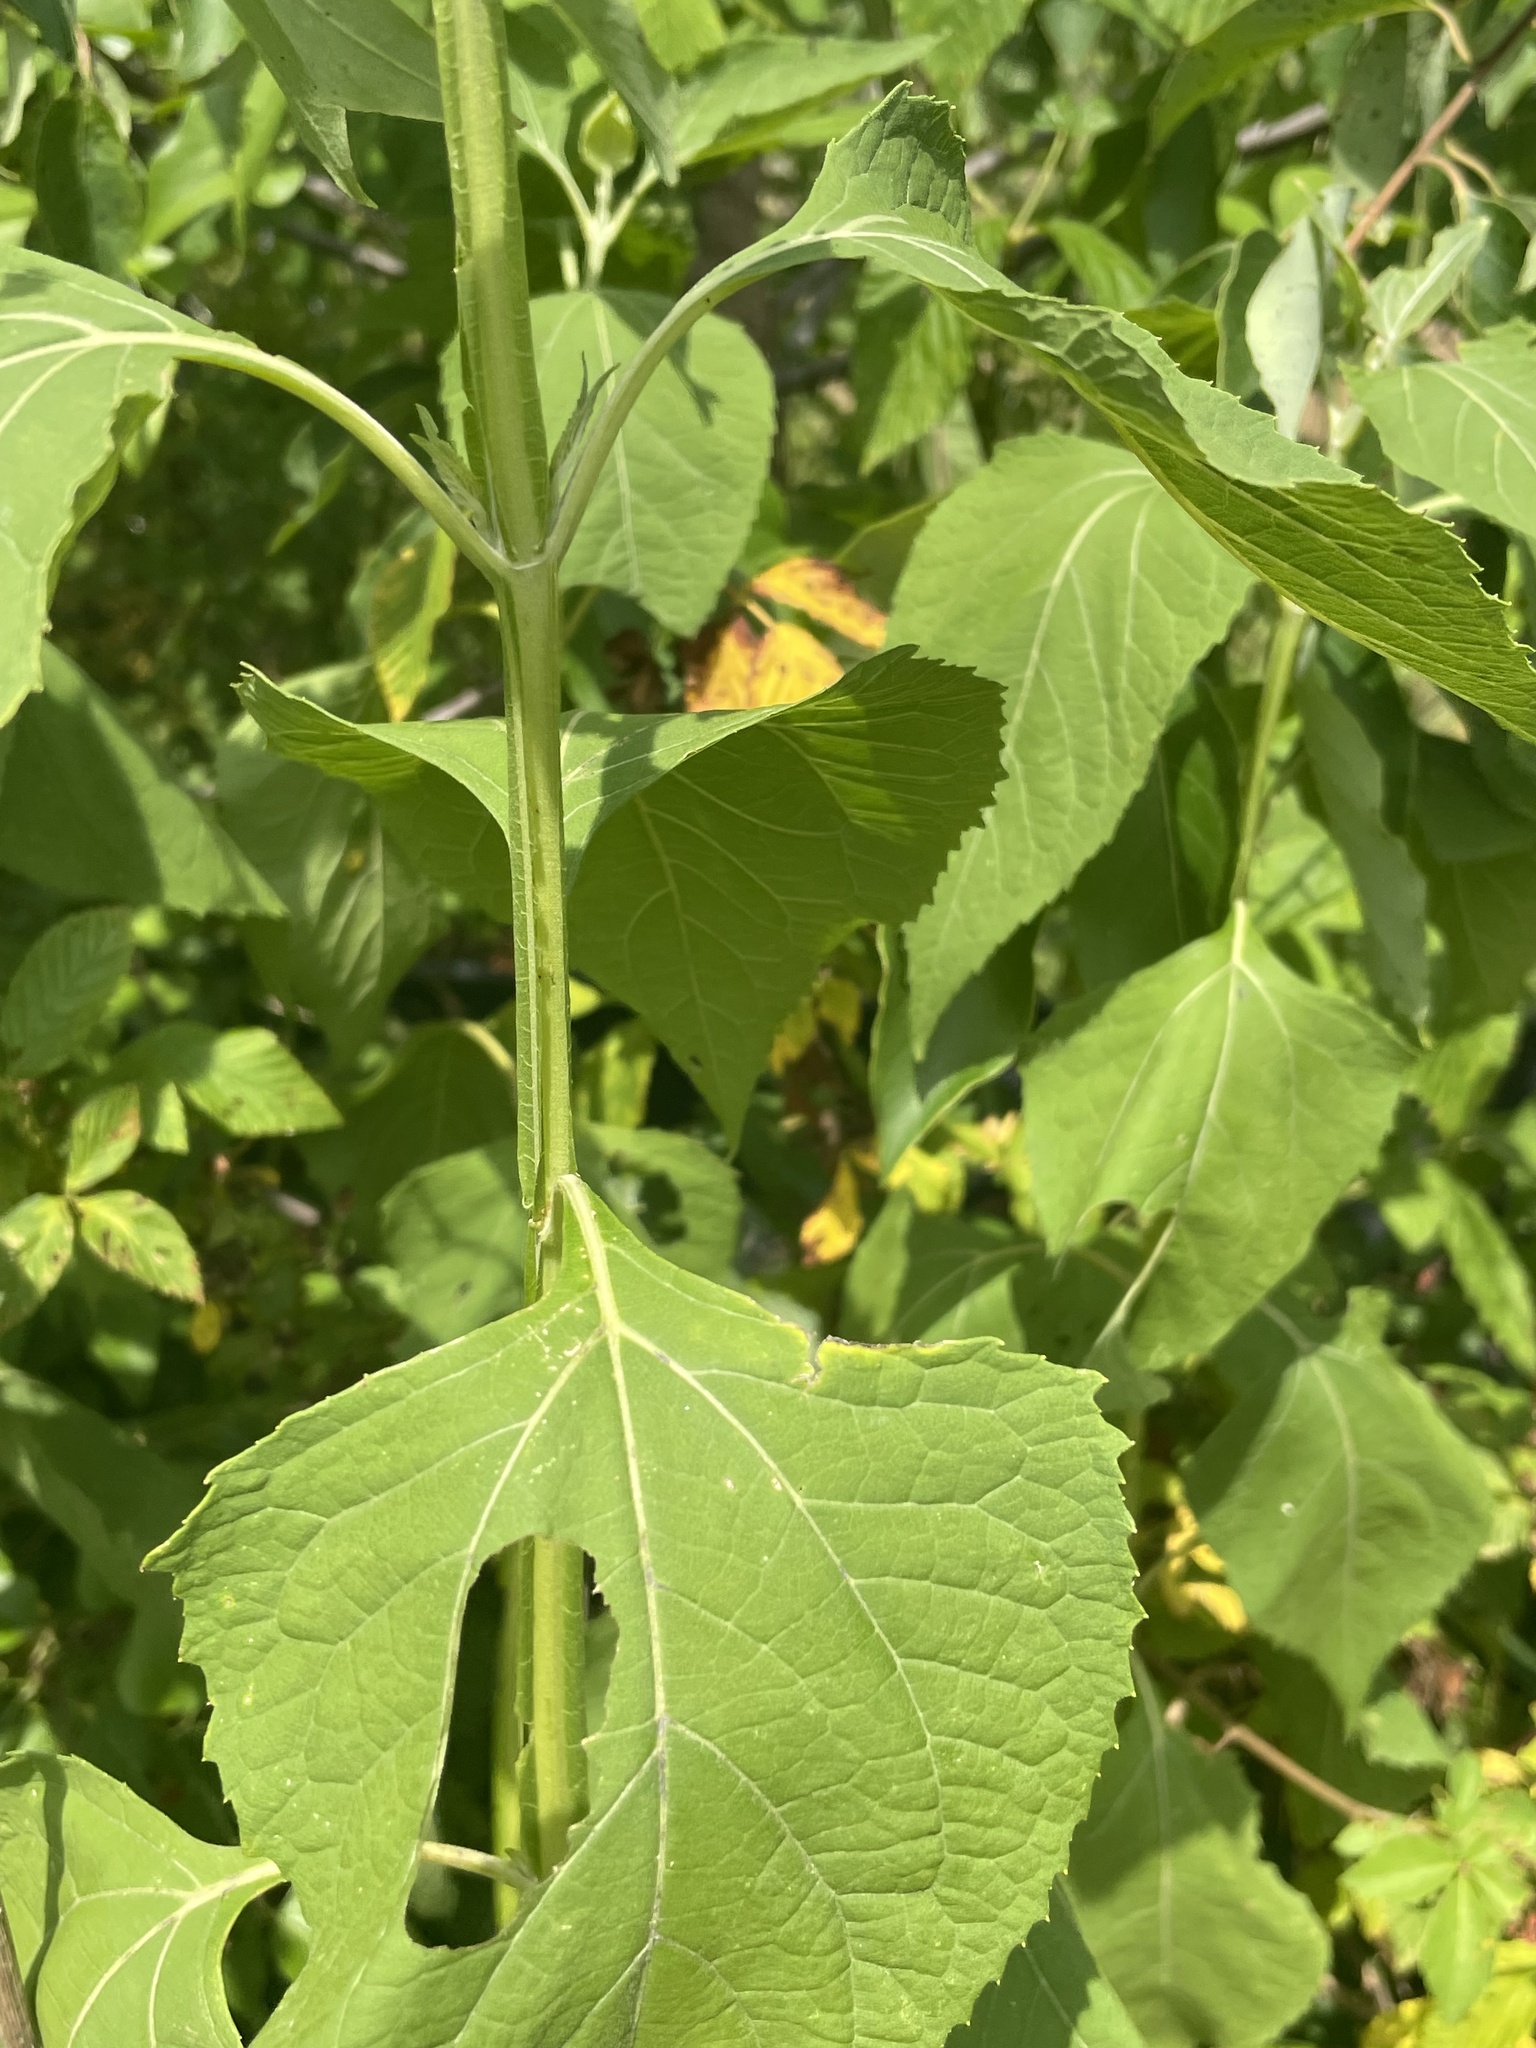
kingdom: Plantae
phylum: Tracheophyta
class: Magnoliopsida
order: Asterales
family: Asteraceae
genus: Verbesina
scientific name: Verbesina occidentalis
